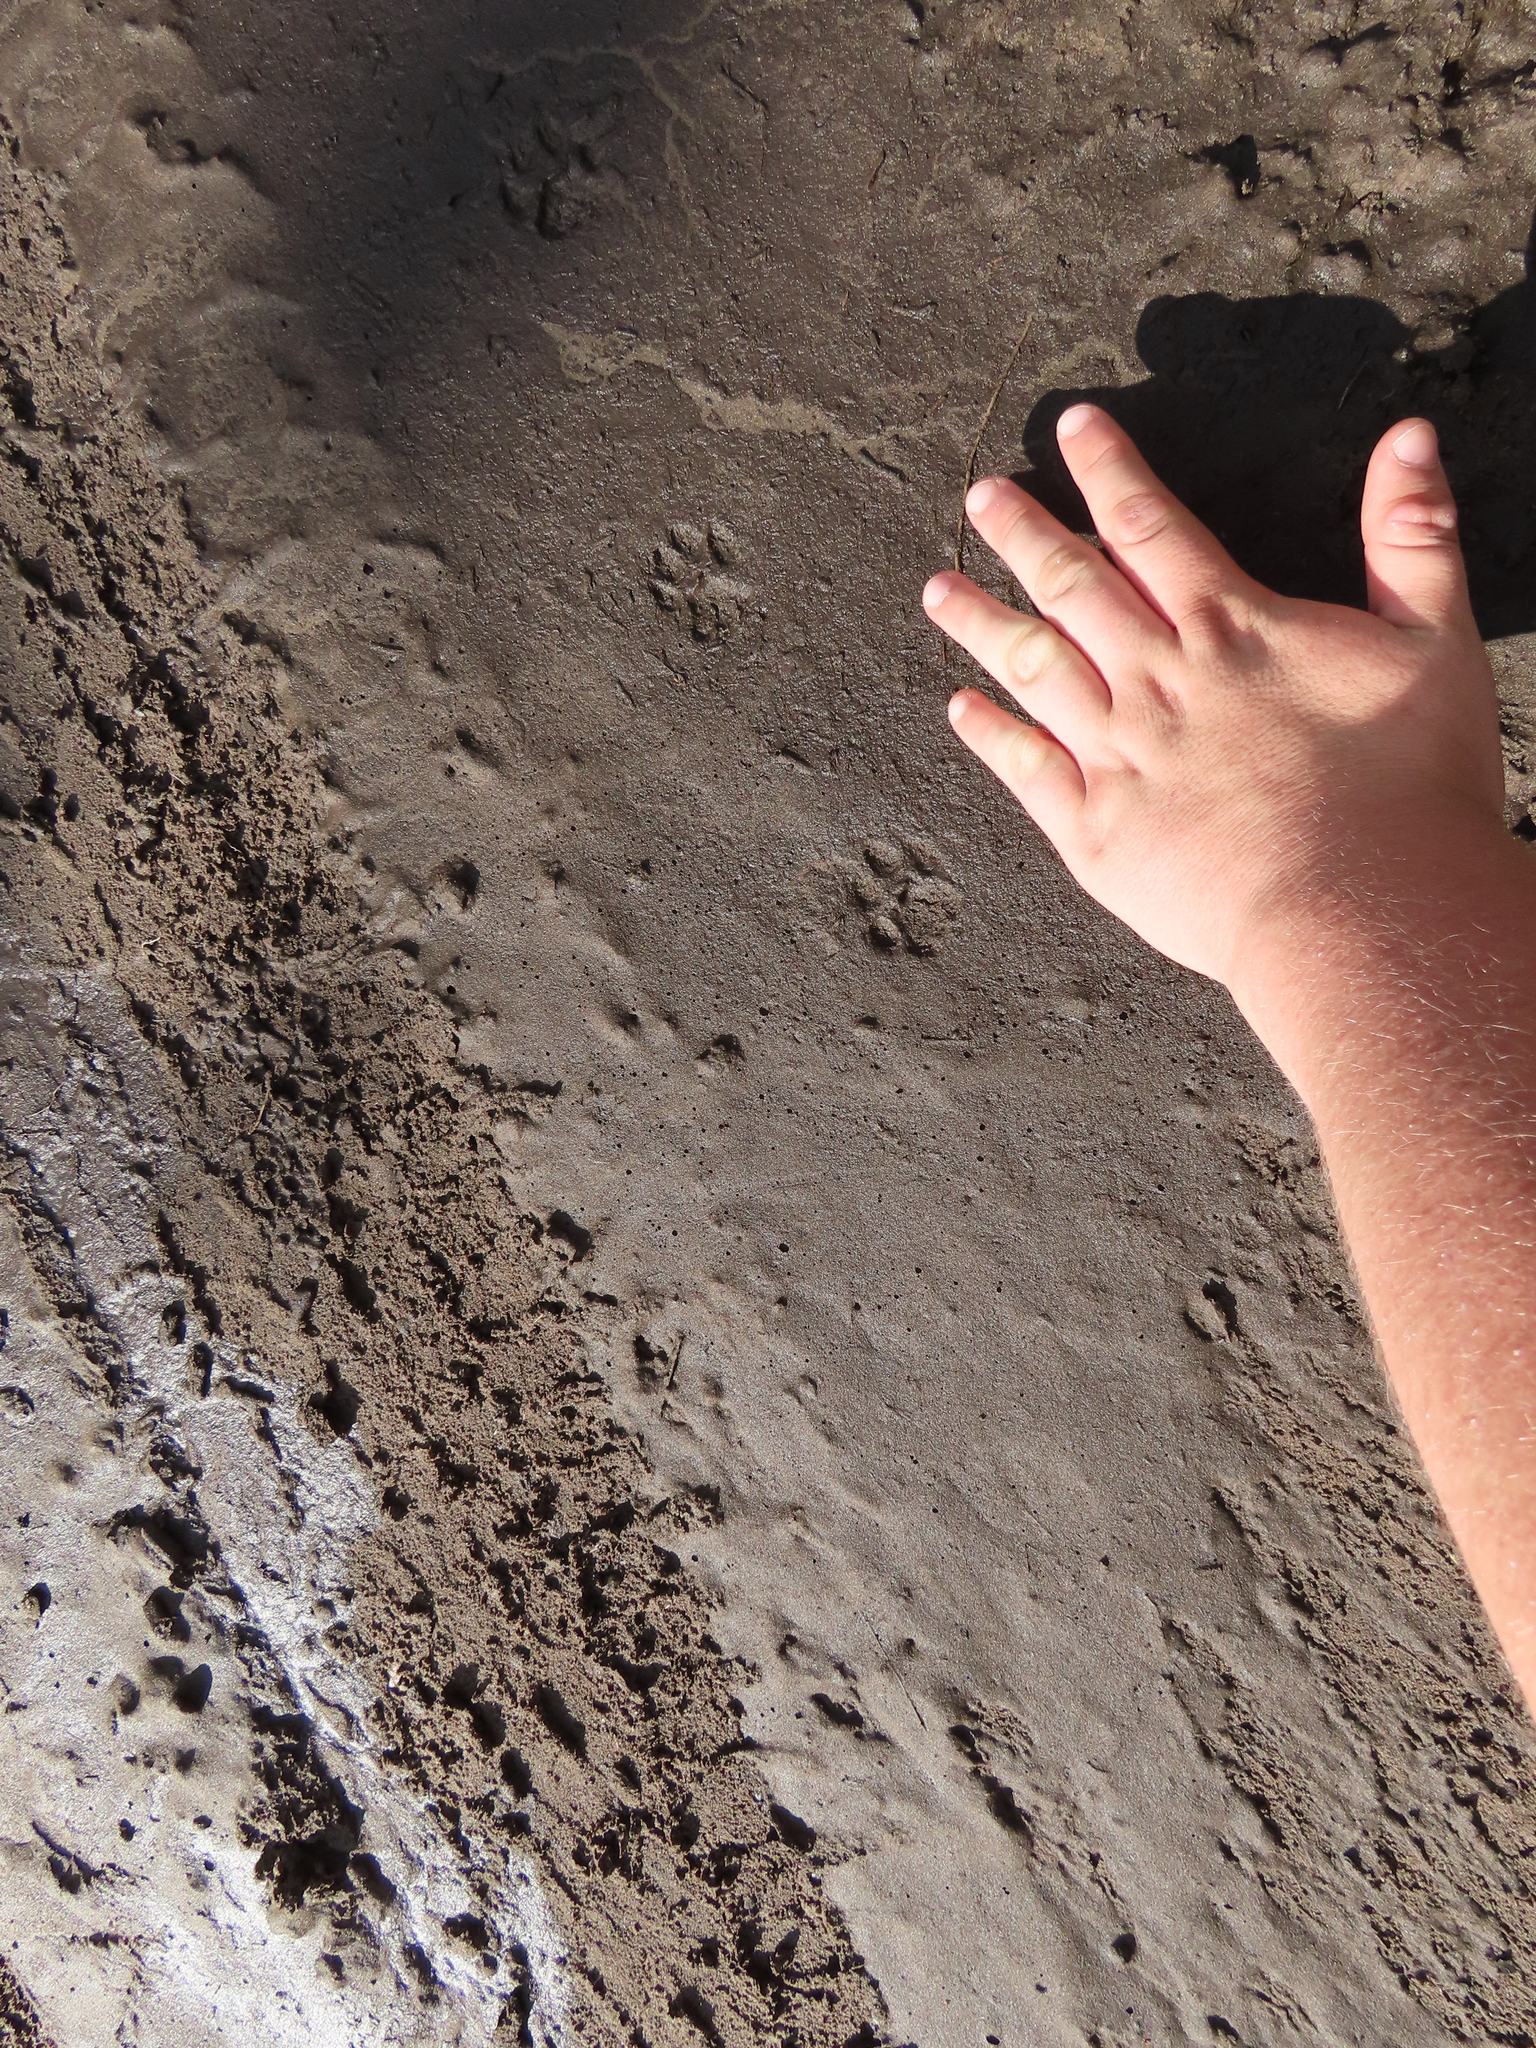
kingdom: Animalia
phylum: Chordata
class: Mammalia
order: Carnivora
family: Felidae
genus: Felis
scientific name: Felis catus
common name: Domestic cat
